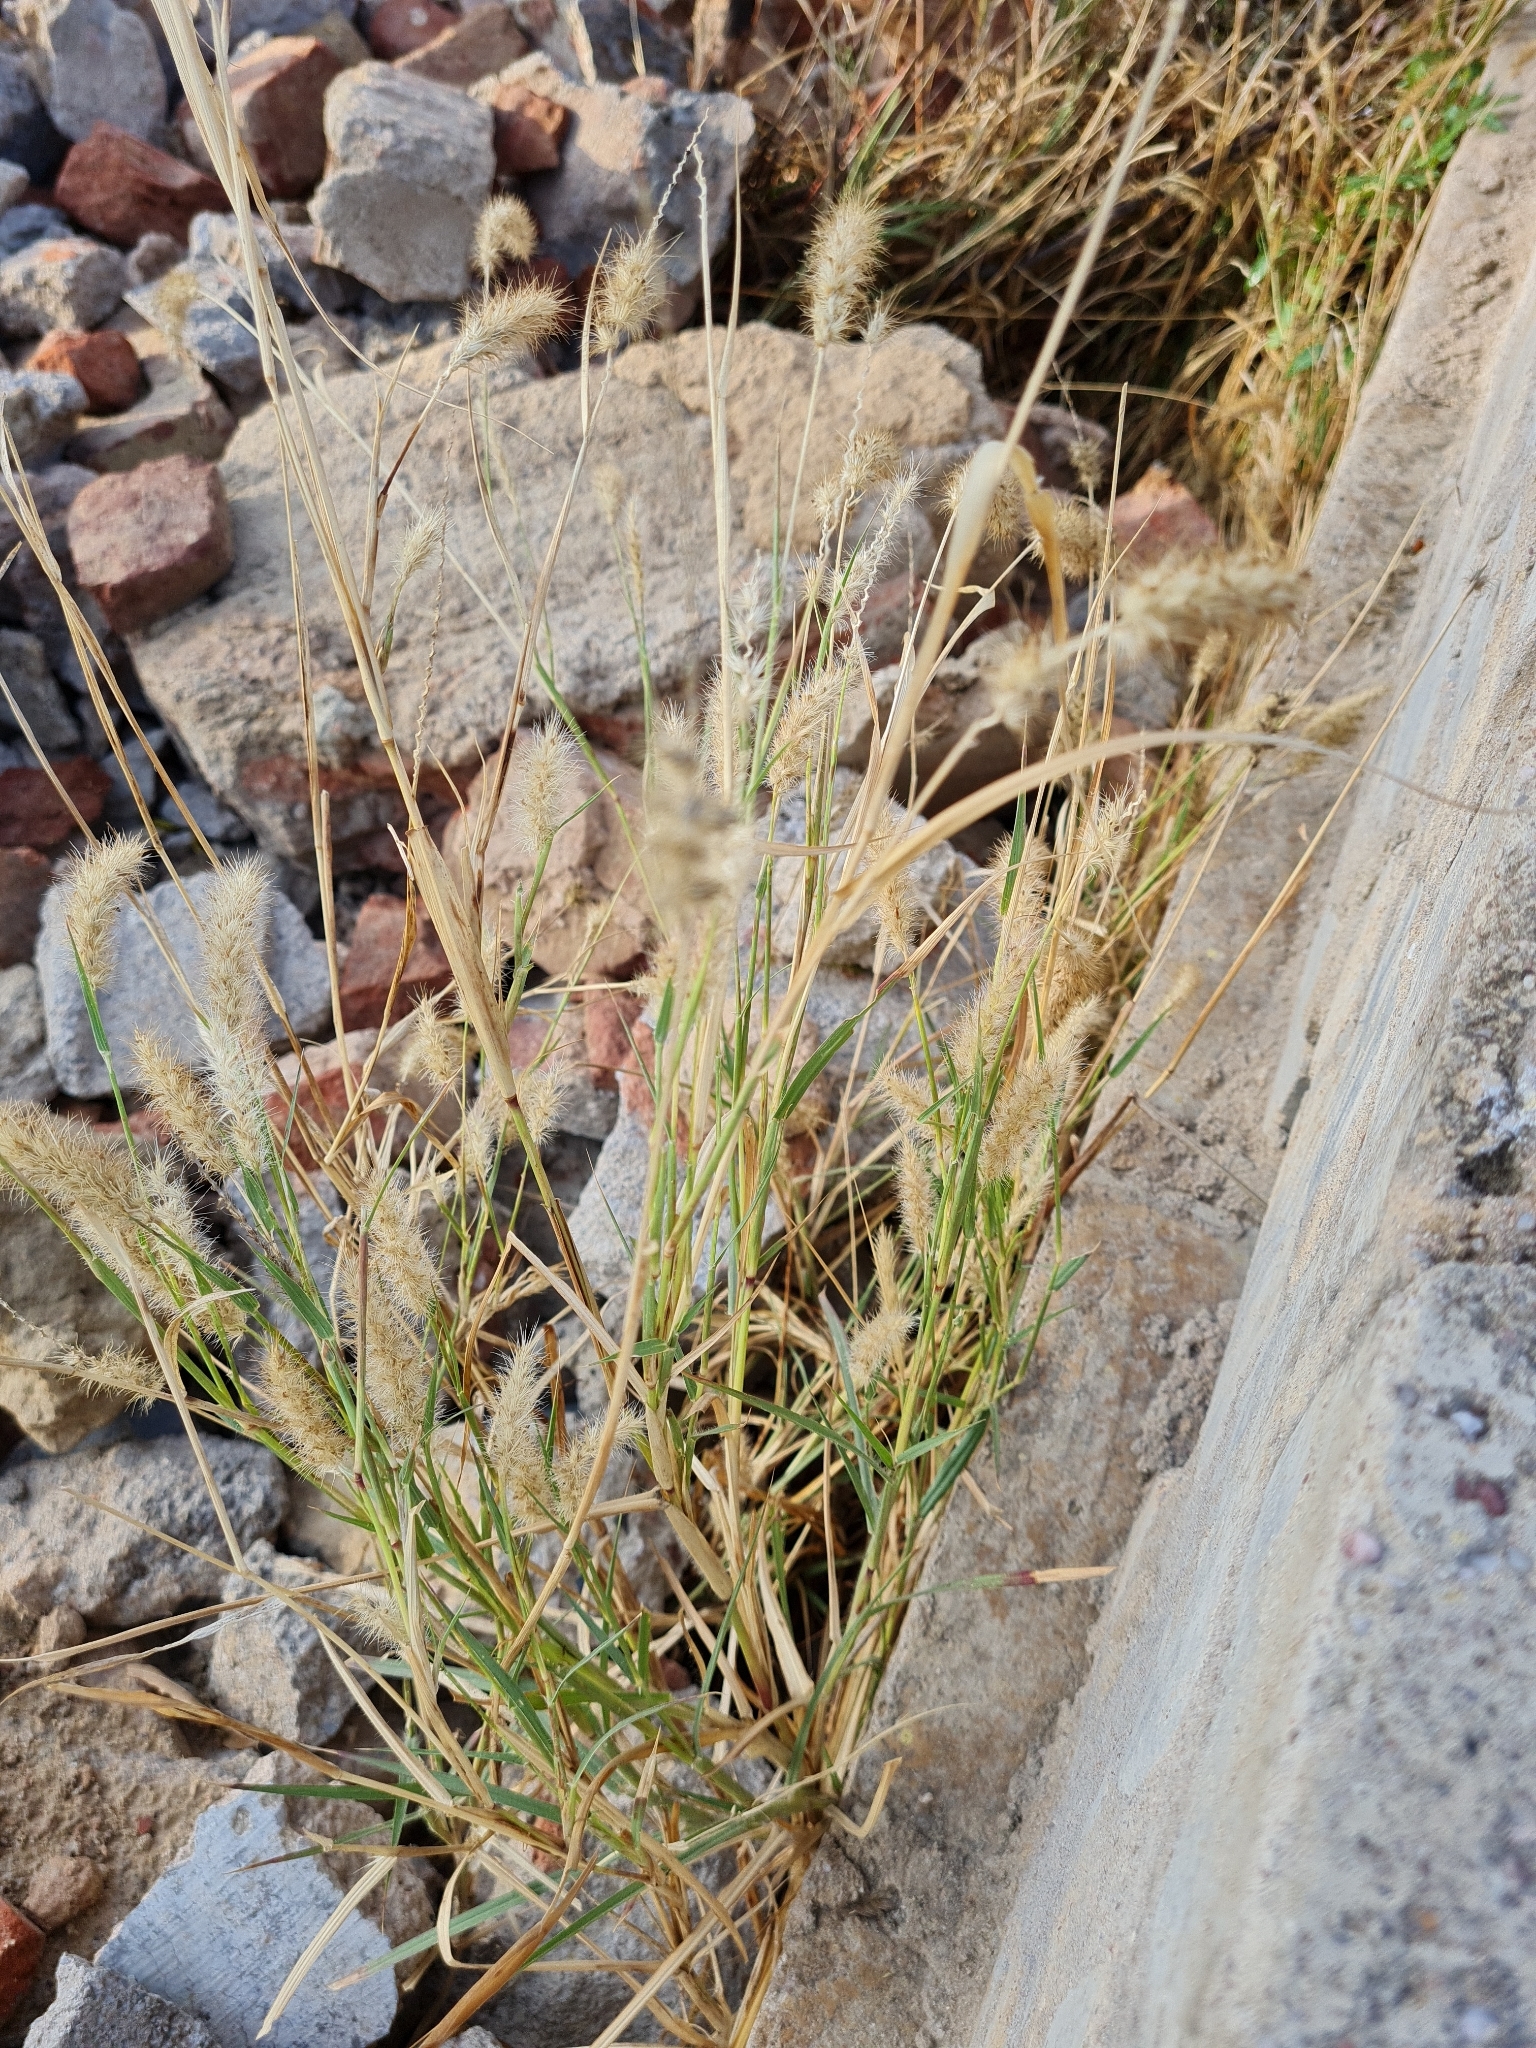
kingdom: Plantae
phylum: Tracheophyta
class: Liliopsida
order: Poales
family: Poaceae
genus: Cenchrus
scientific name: Cenchrus biflorus
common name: Indian sandbur
